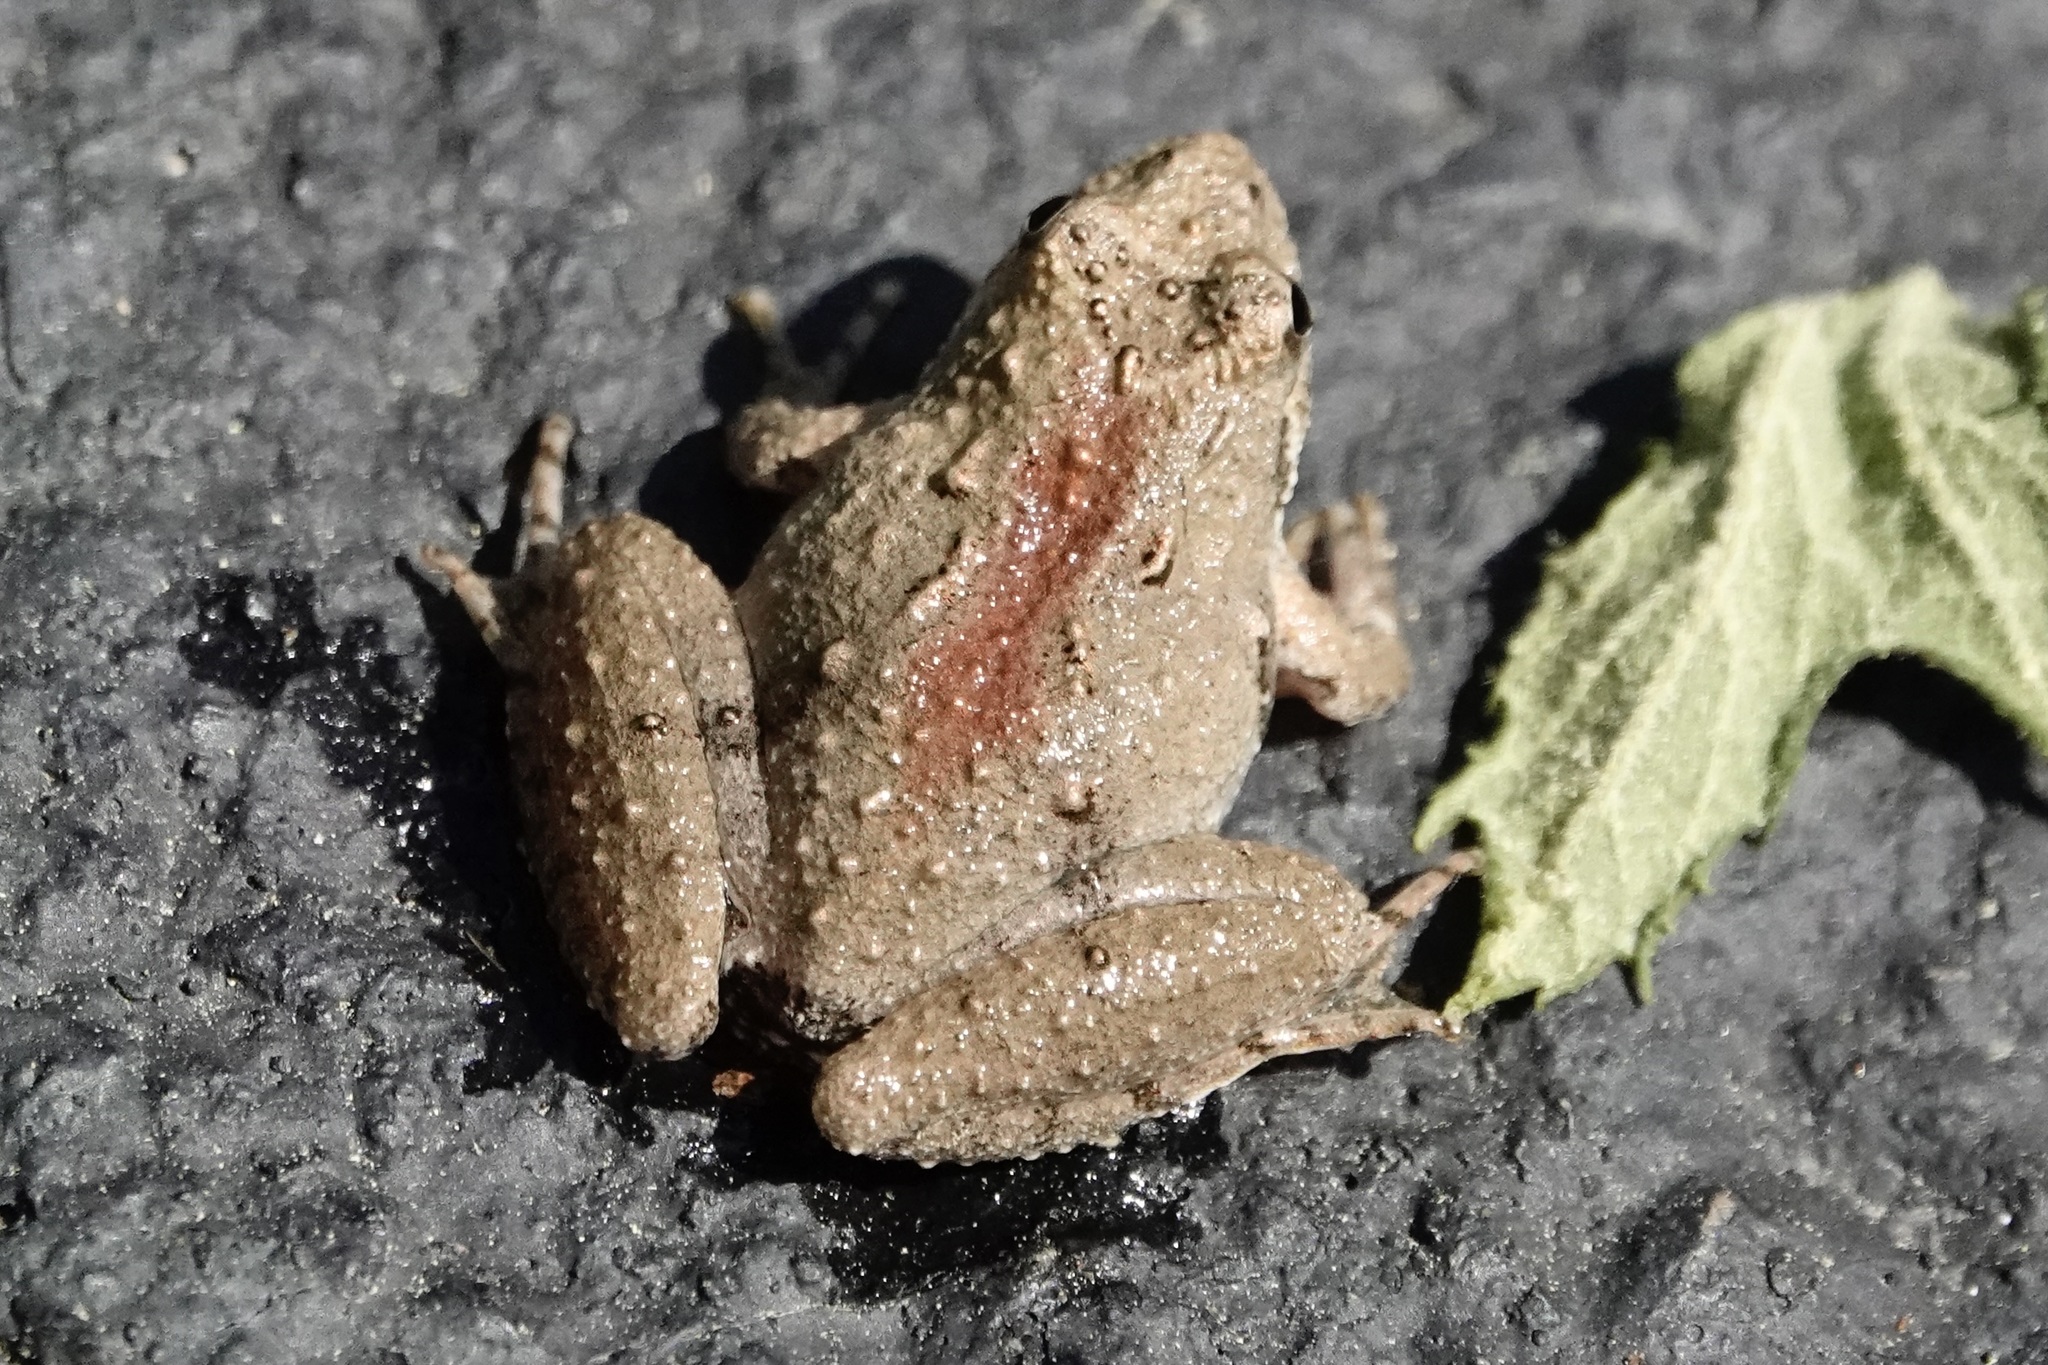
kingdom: Animalia
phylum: Chordata
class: Amphibia
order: Anura
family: Hylidae
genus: Acris
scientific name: Acris crepitans
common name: Northern cricket frog
